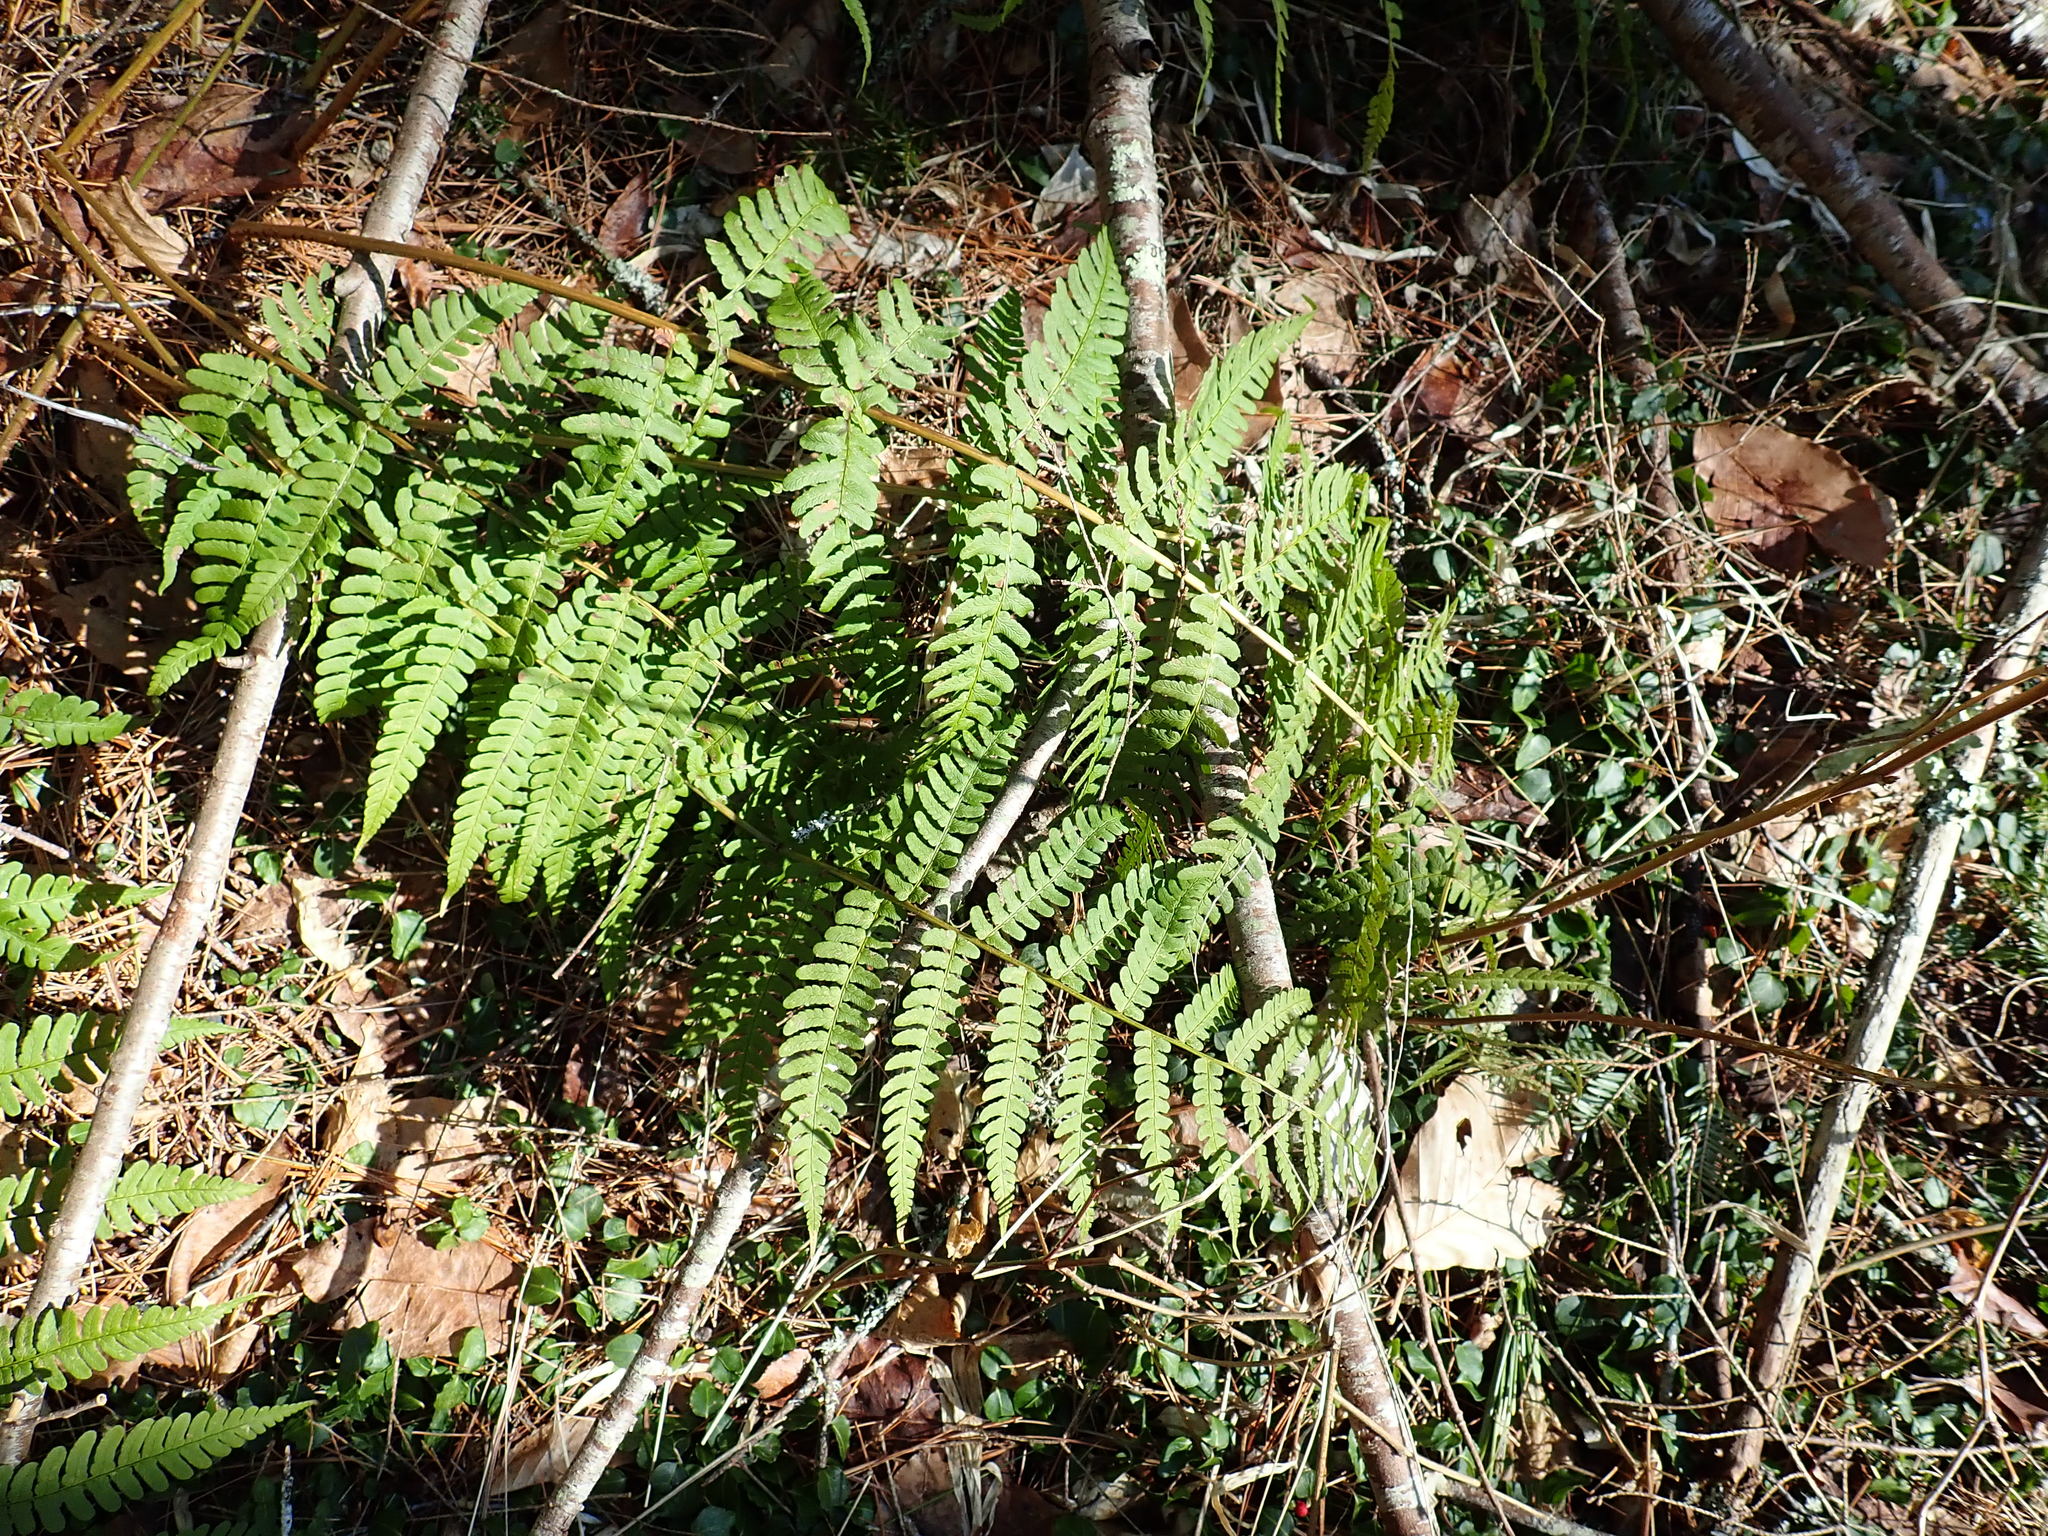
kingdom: Plantae
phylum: Tracheophyta
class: Polypodiopsida
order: Polypodiales
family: Dryopteridaceae
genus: Dryopteris
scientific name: Dryopteris marginalis
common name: Marginal wood fern
